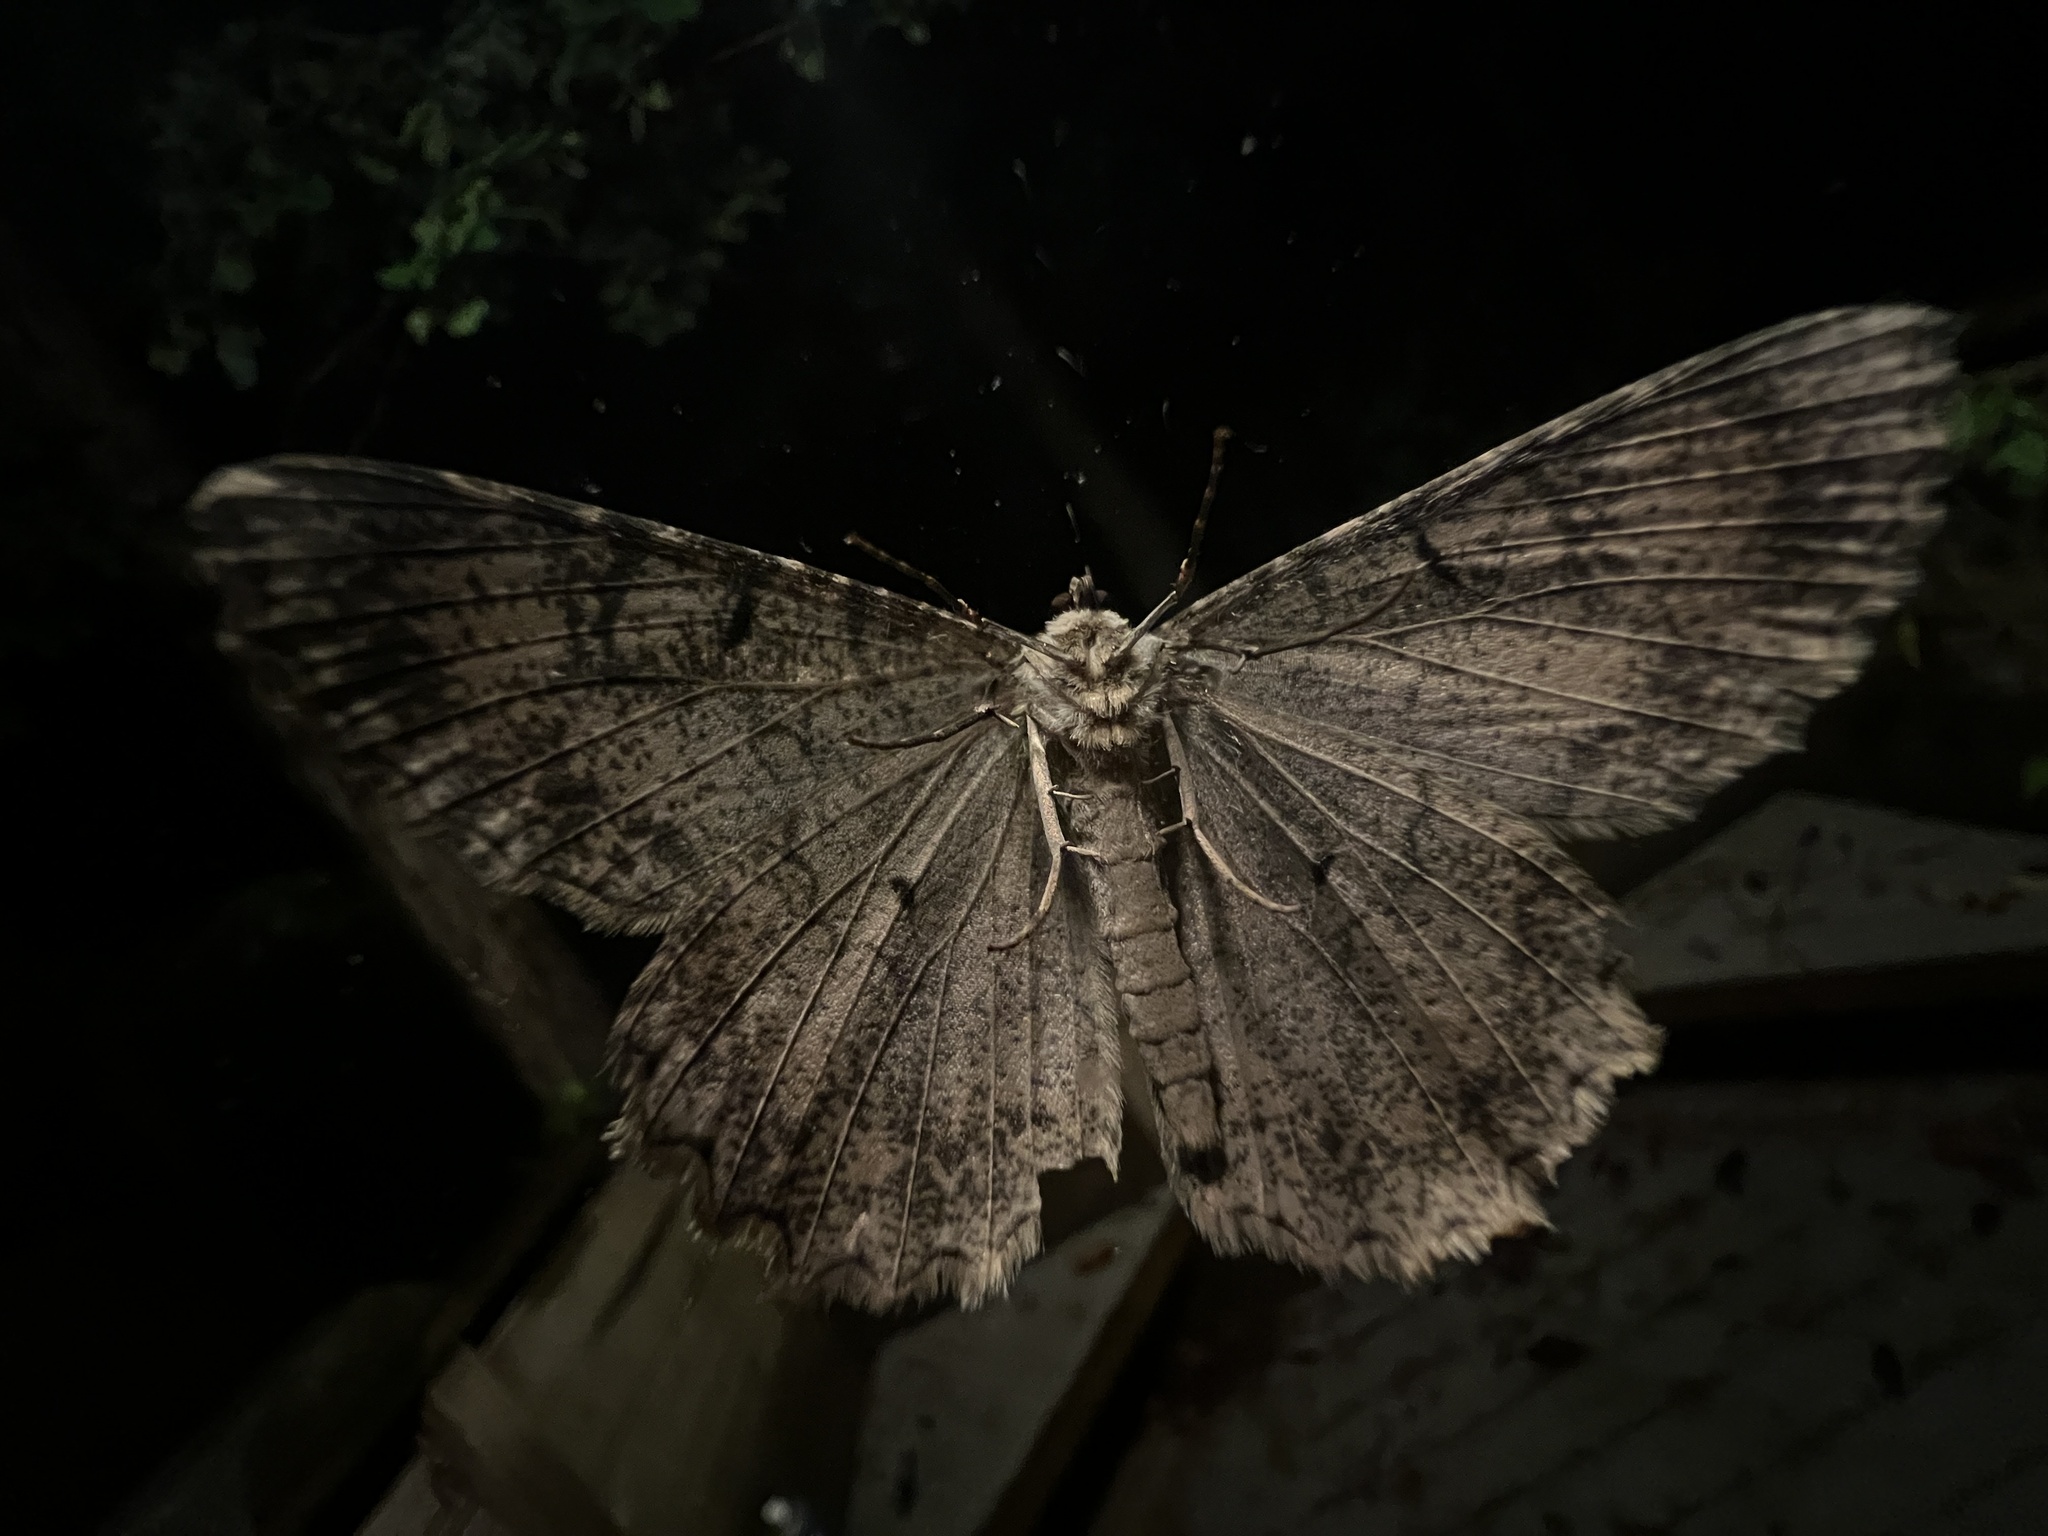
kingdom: Animalia
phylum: Arthropoda
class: Insecta
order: Lepidoptera
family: Geometridae
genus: Epimecis
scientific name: Epimecis hortaria
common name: Tulip-tree beauty
